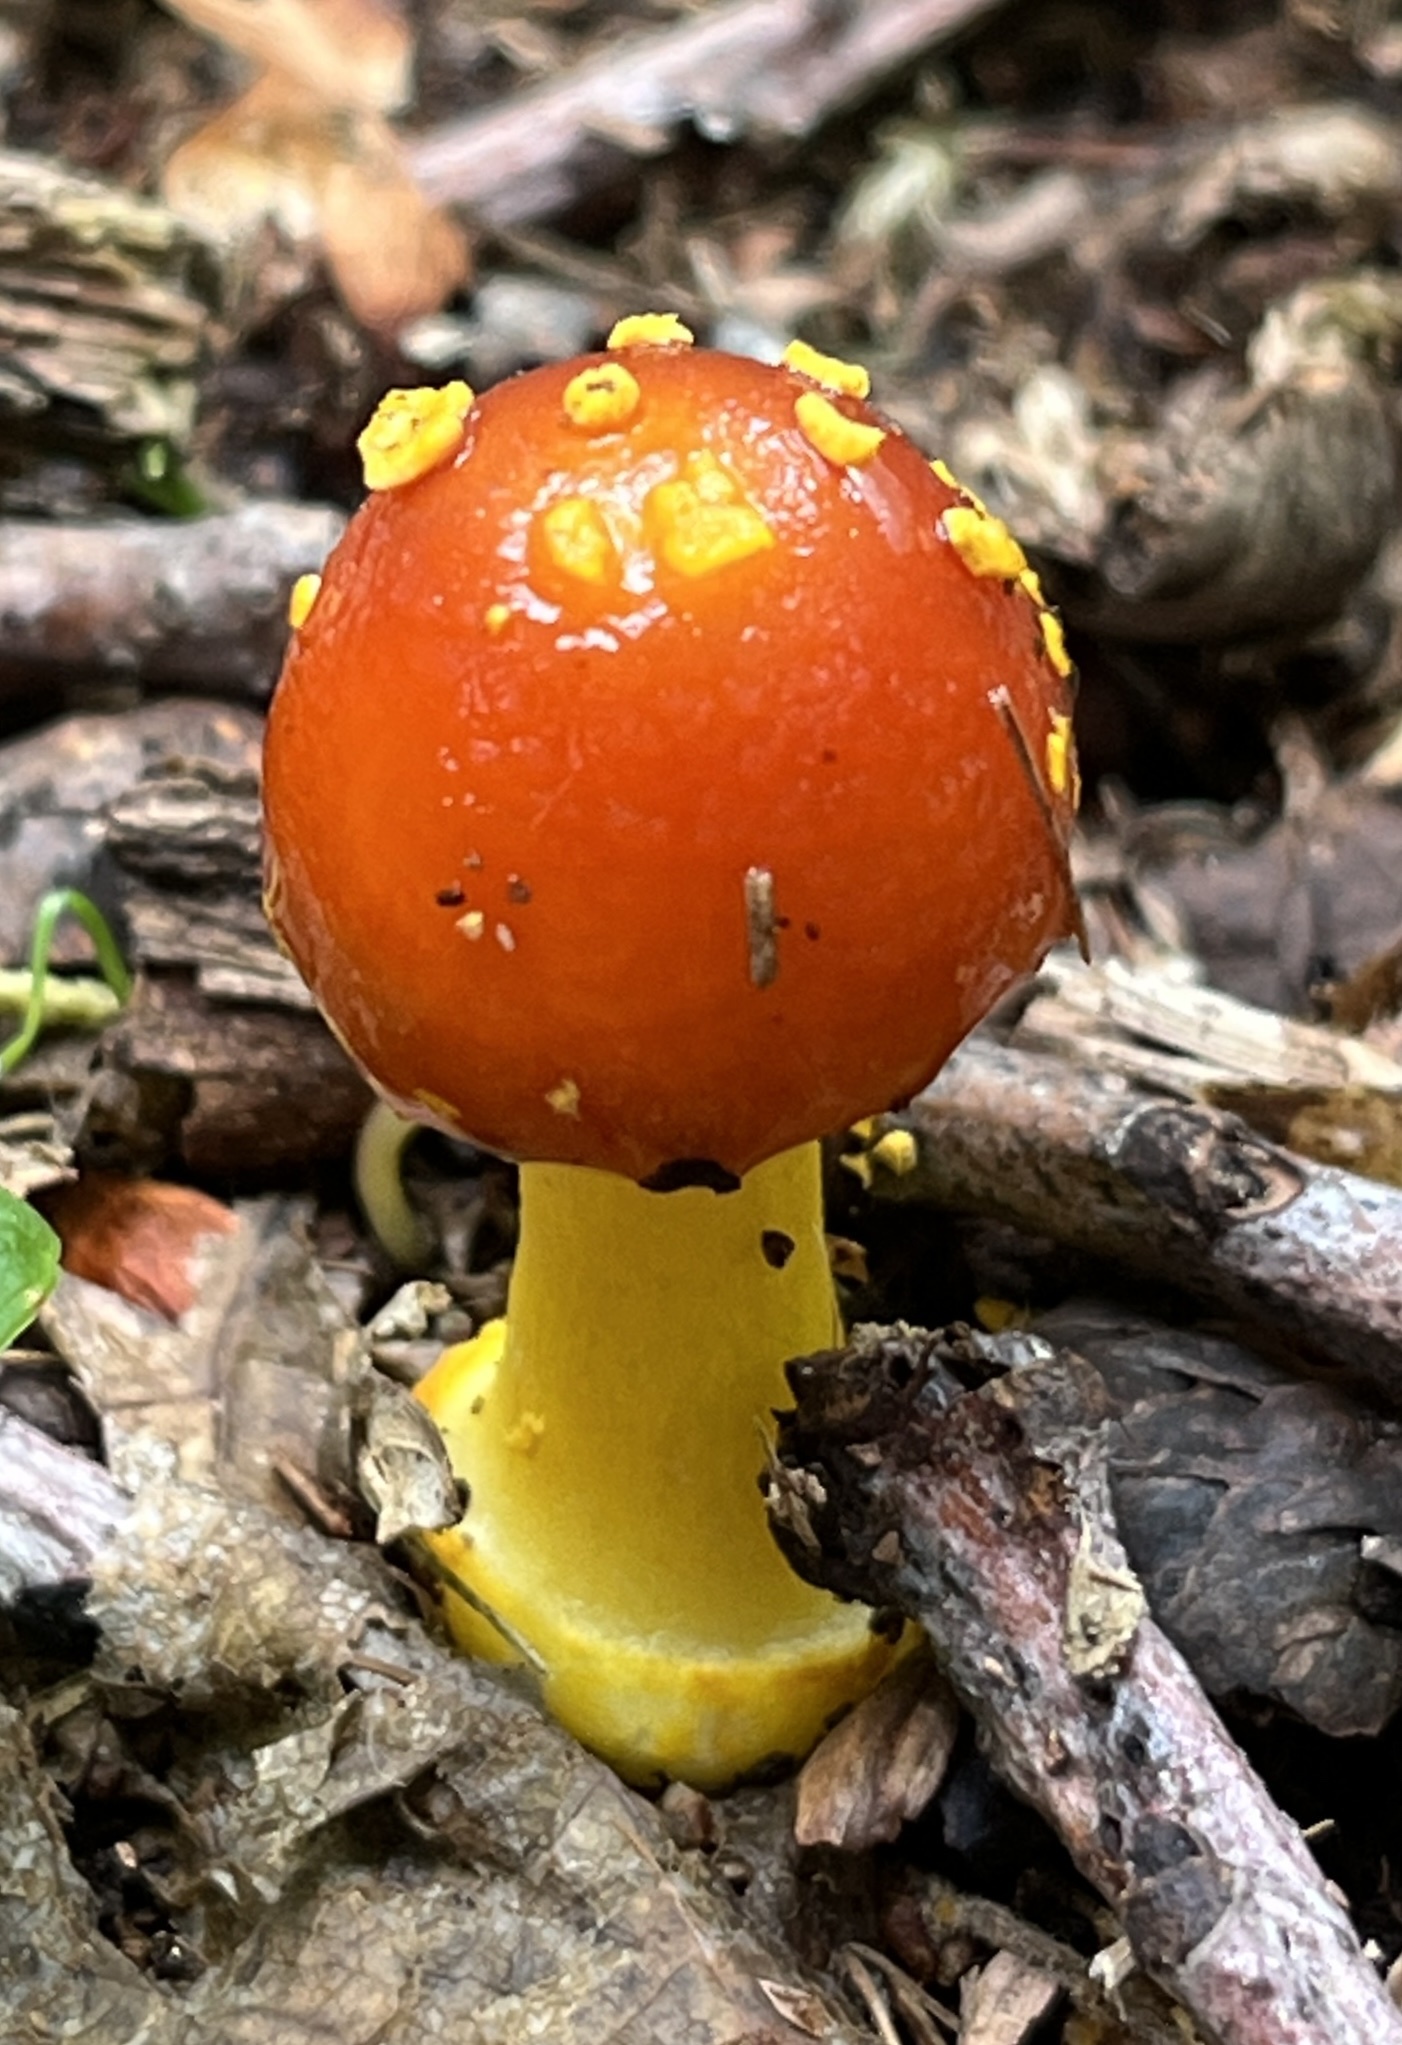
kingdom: Fungi
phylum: Basidiomycota
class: Agaricomycetes
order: Agaricales
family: Amanitaceae
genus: Amanita
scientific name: Amanita erythrocephala
